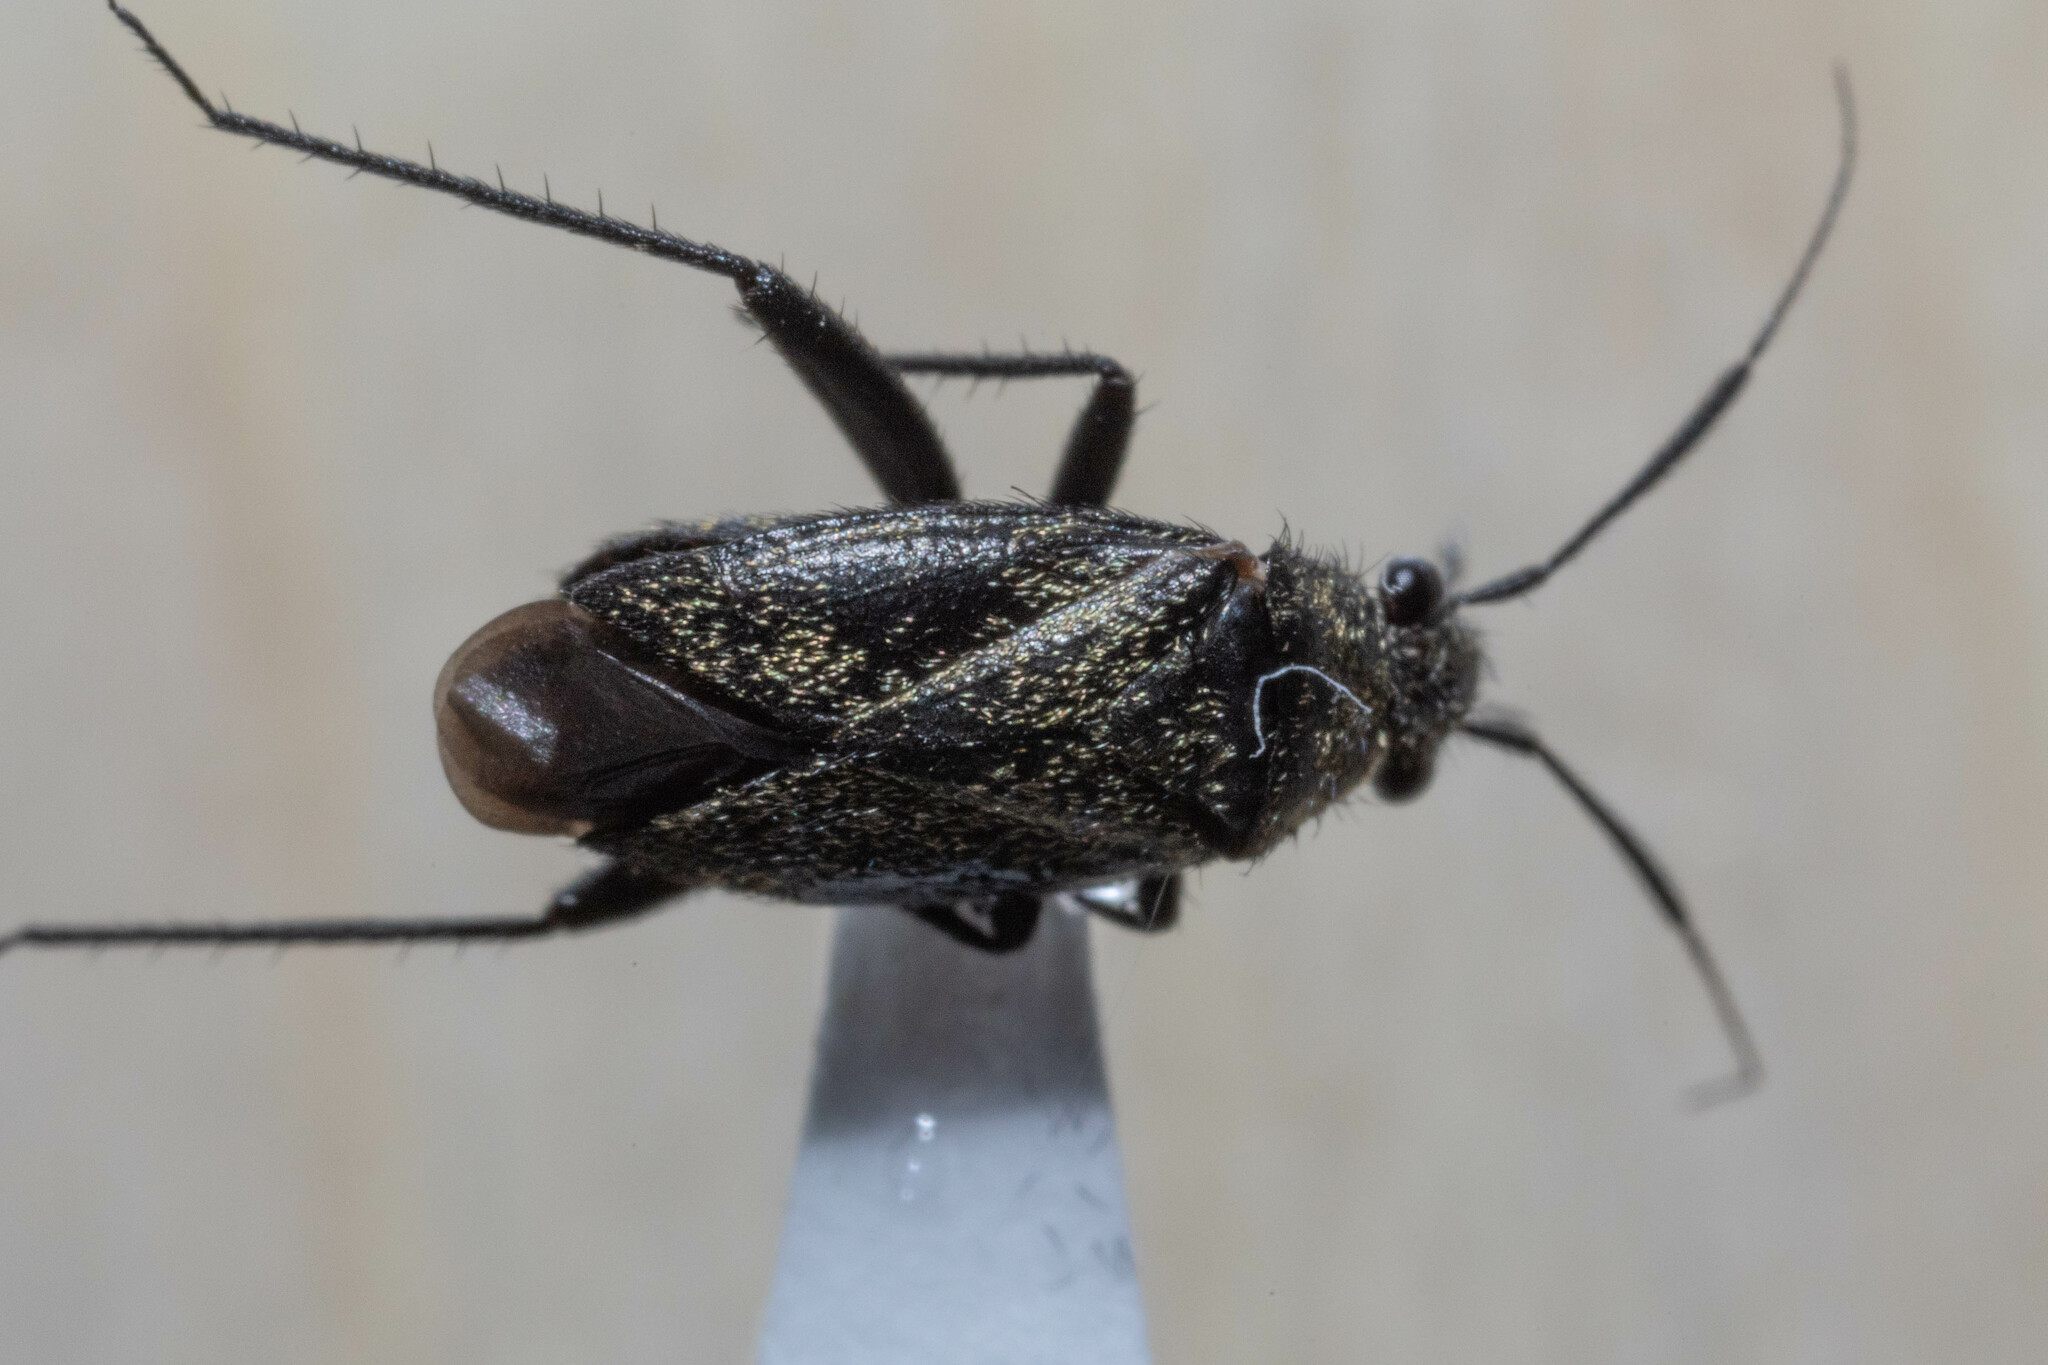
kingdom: Animalia
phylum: Arthropoda
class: Insecta
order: Hemiptera
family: Miridae
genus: Orthocephalus
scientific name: Orthocephalus coriaceus
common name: Plant bug
